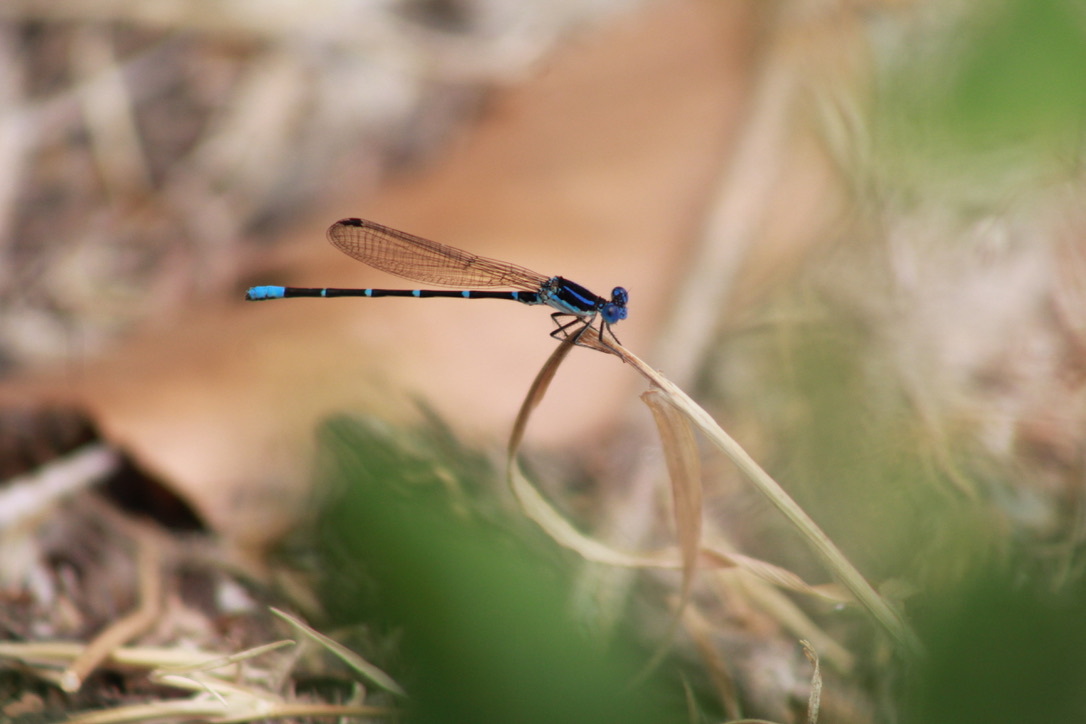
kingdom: Animalia
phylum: Arthropoda
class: Insecta
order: Odonata
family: Coenagrionidae
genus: Argia
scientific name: Argia sedula
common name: Blue-ringed dancer
